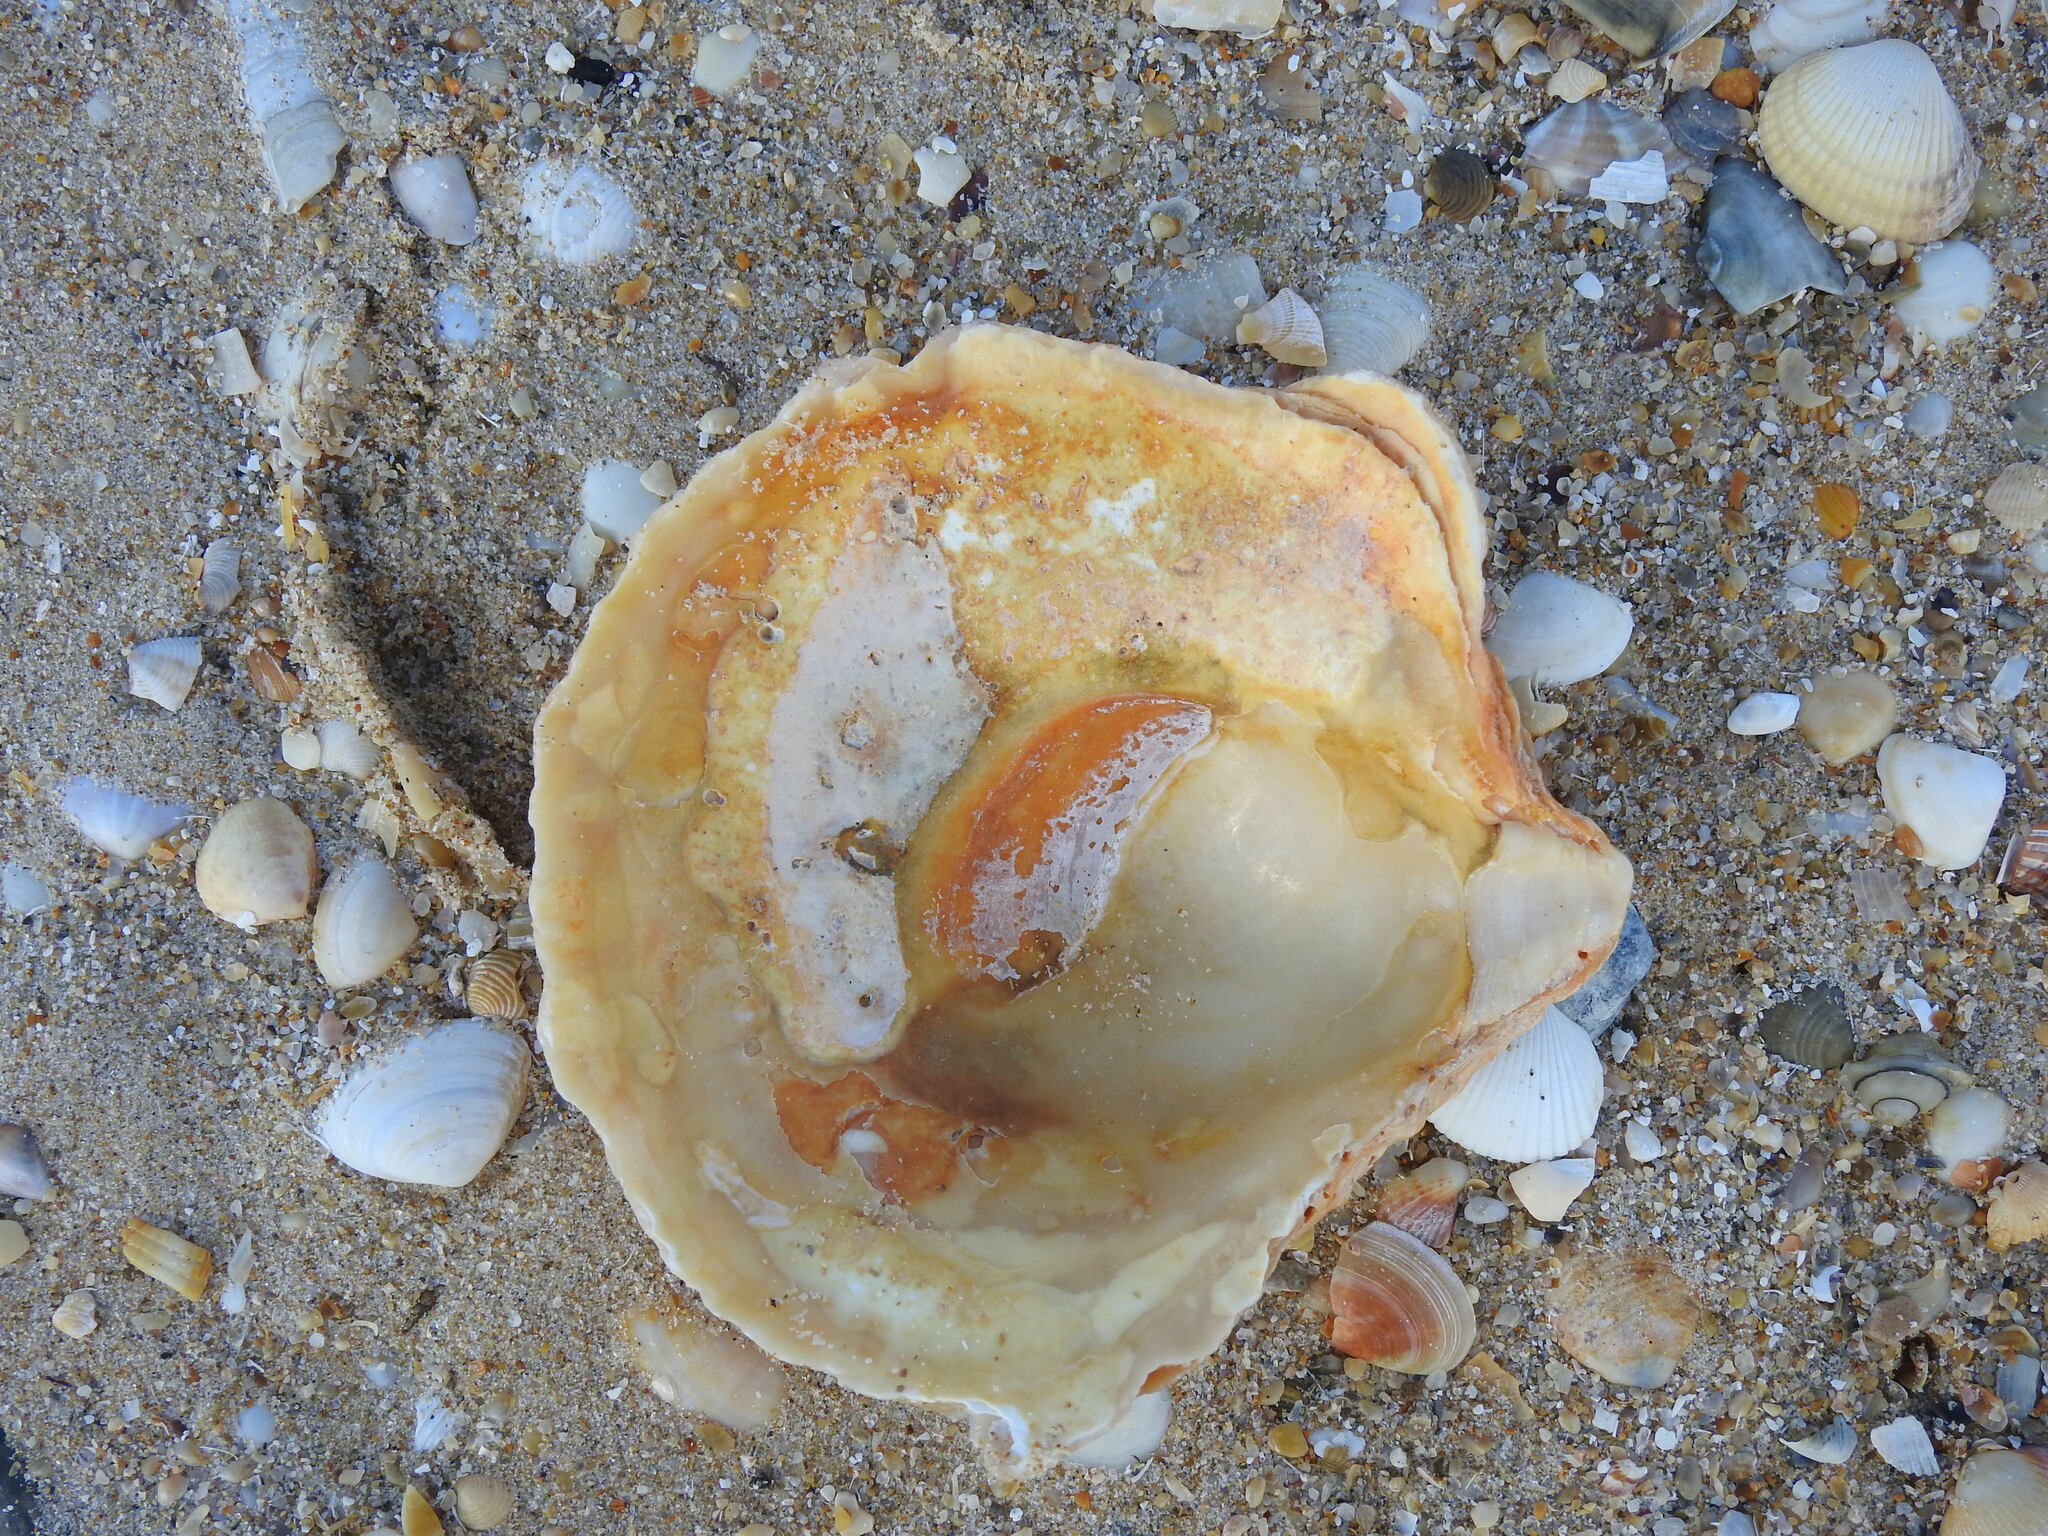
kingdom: Animalia
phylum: Mollusca
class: Bivalvia
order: Ostreida
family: Ostreidae
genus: Ostrea
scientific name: Ostrea edulis
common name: Flat oyster
